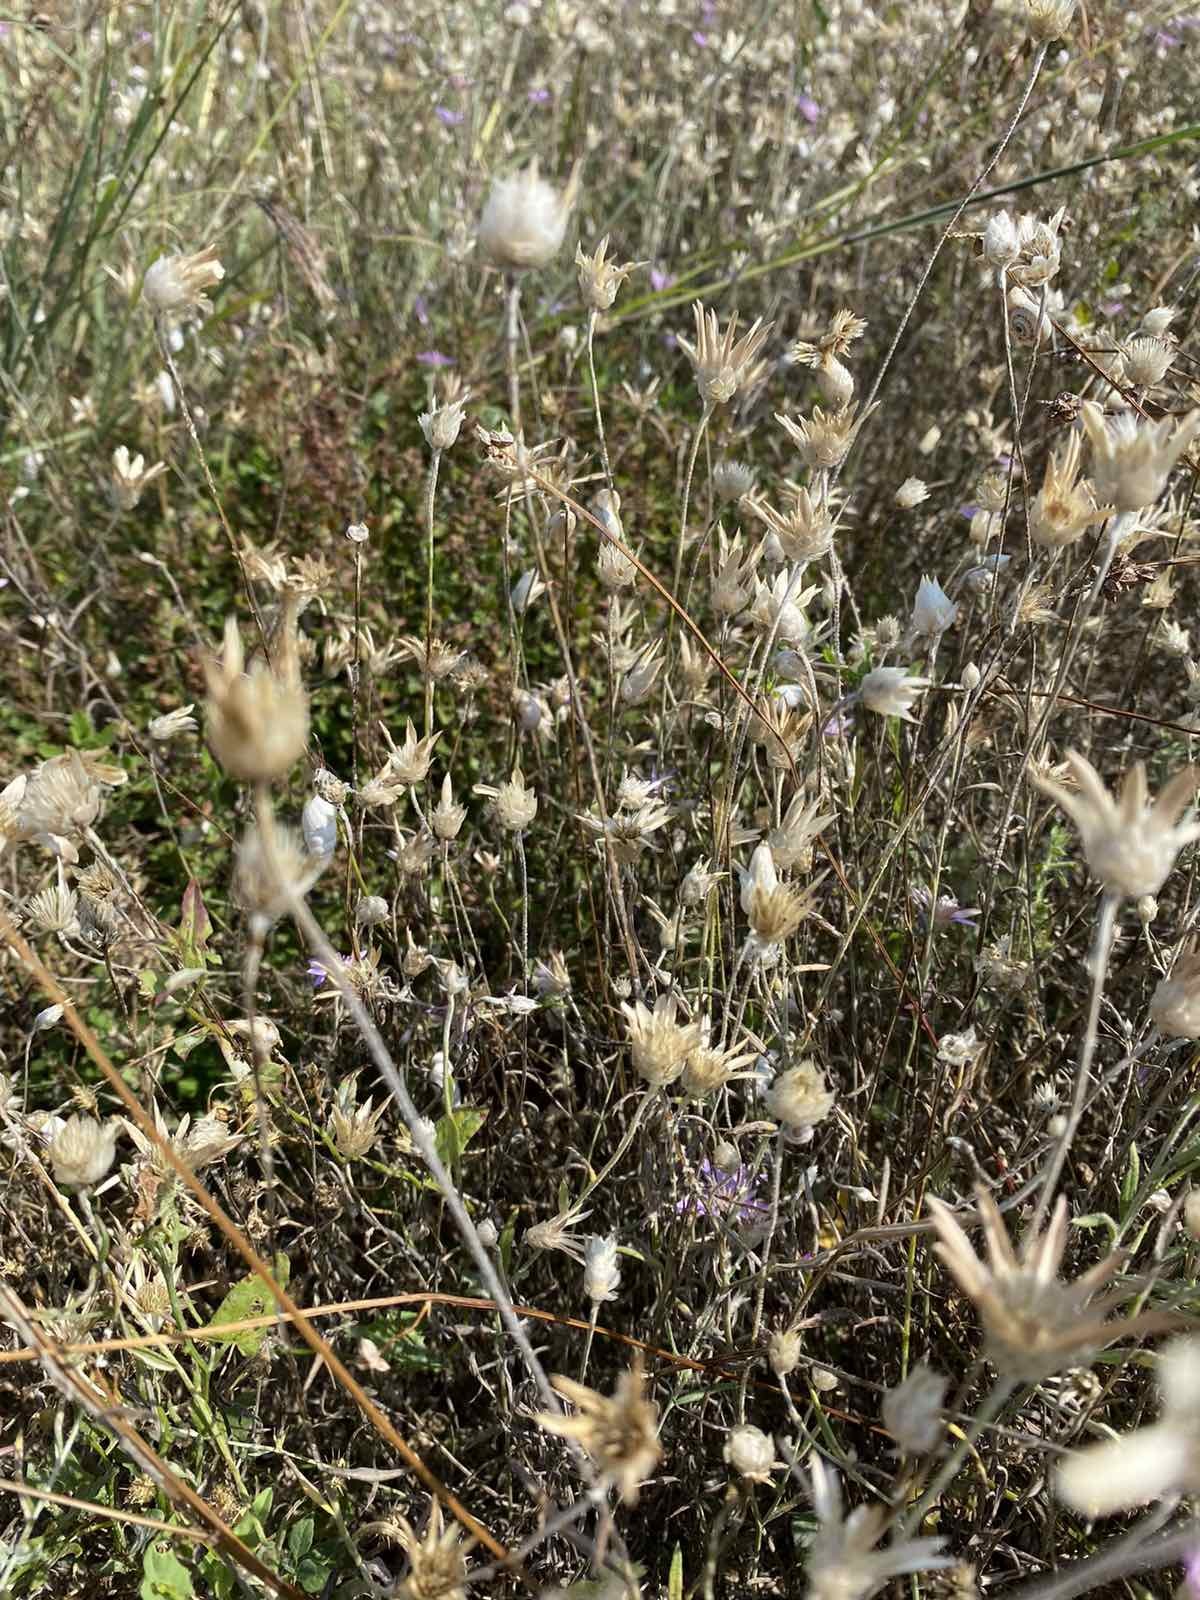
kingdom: Plantae
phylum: Tracheophyta
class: Magnoliopsida
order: Asterales
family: Asteraceae
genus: Xeranthemum
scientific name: Xeranthemum annuum
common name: Immortelle
